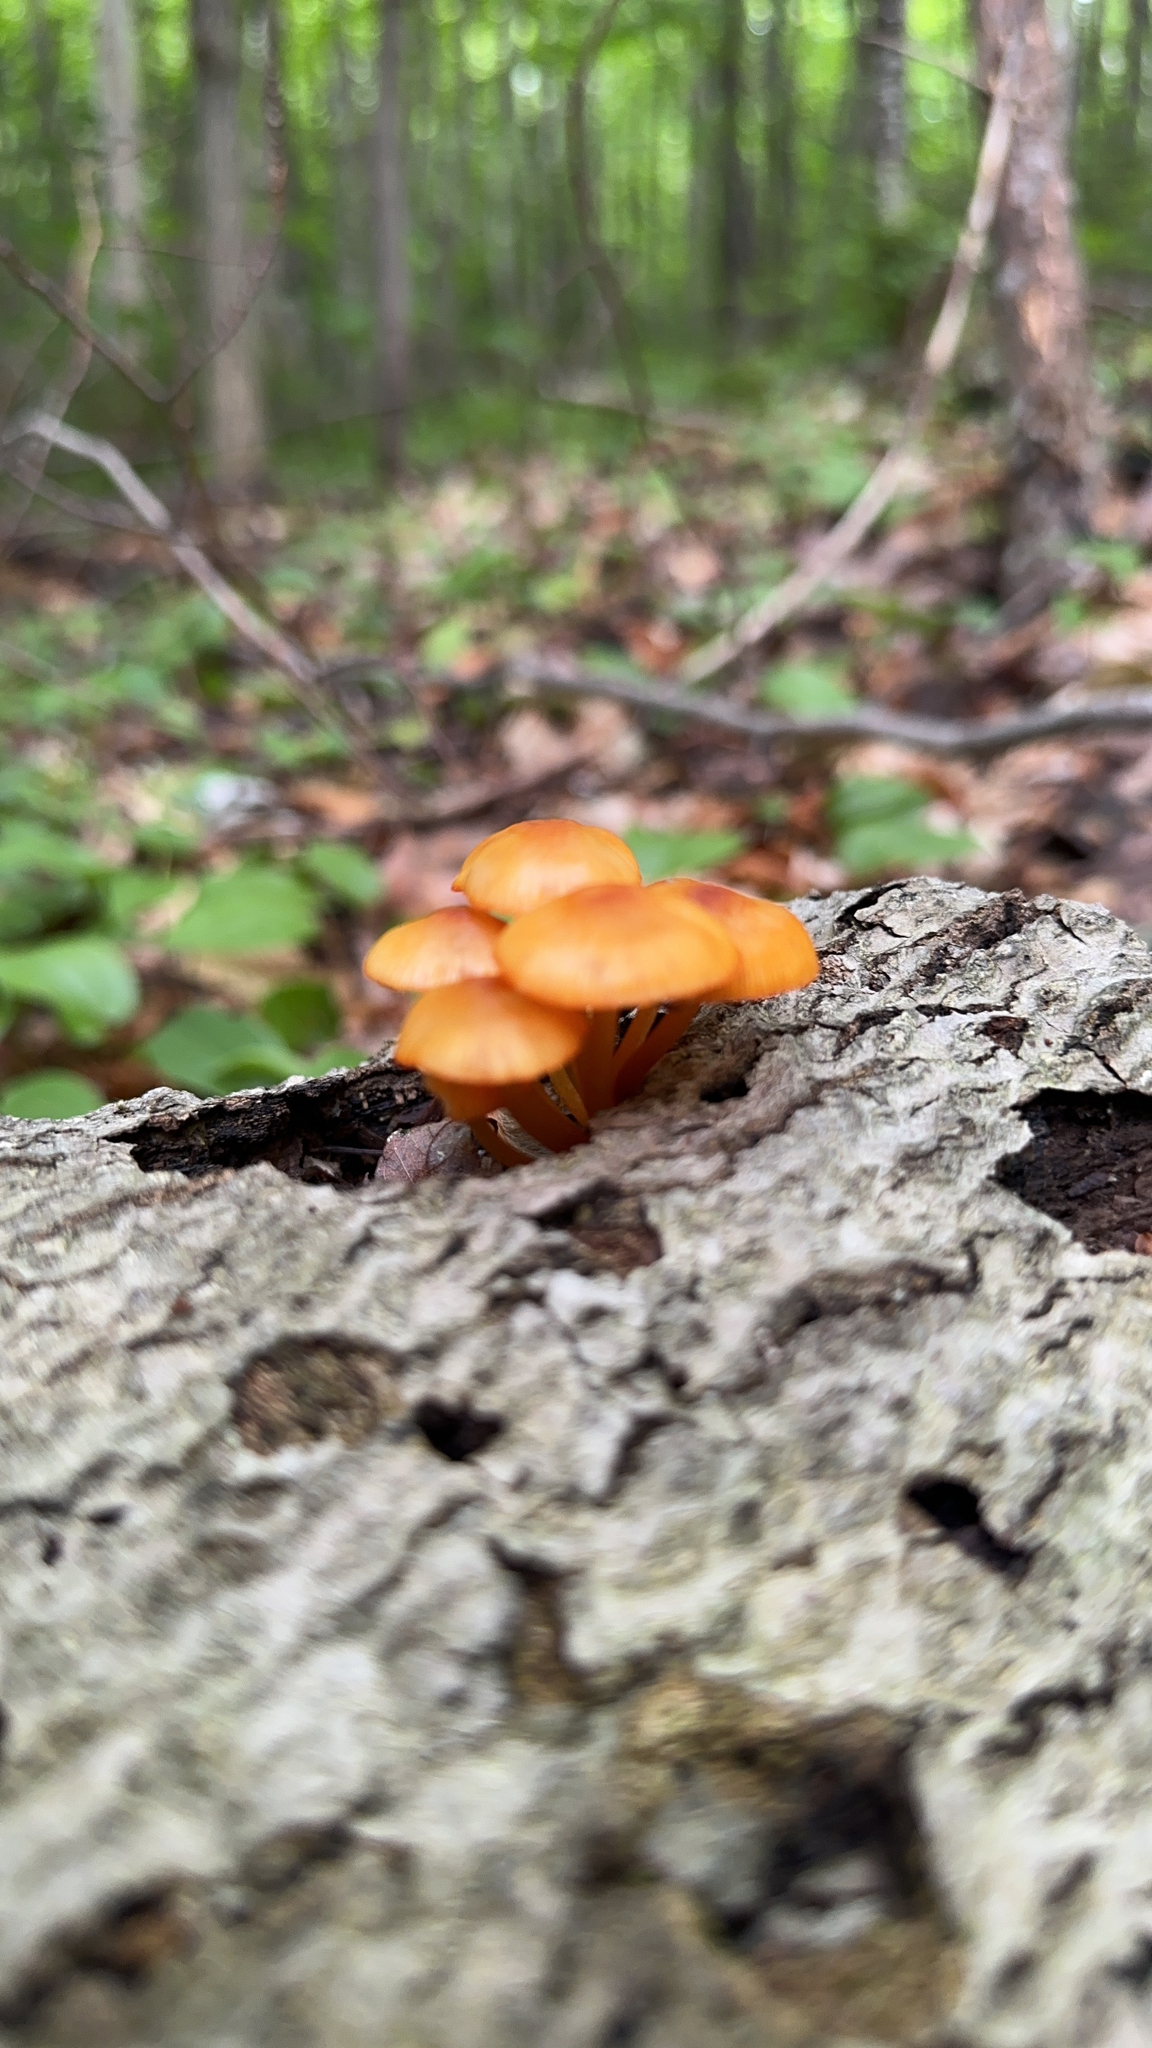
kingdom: Fungi
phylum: Basidiomycota
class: Agaricomycetes
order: Agaricales
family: Mycenaceae
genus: Mycena
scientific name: Mycena leaiana
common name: Orange mycena
